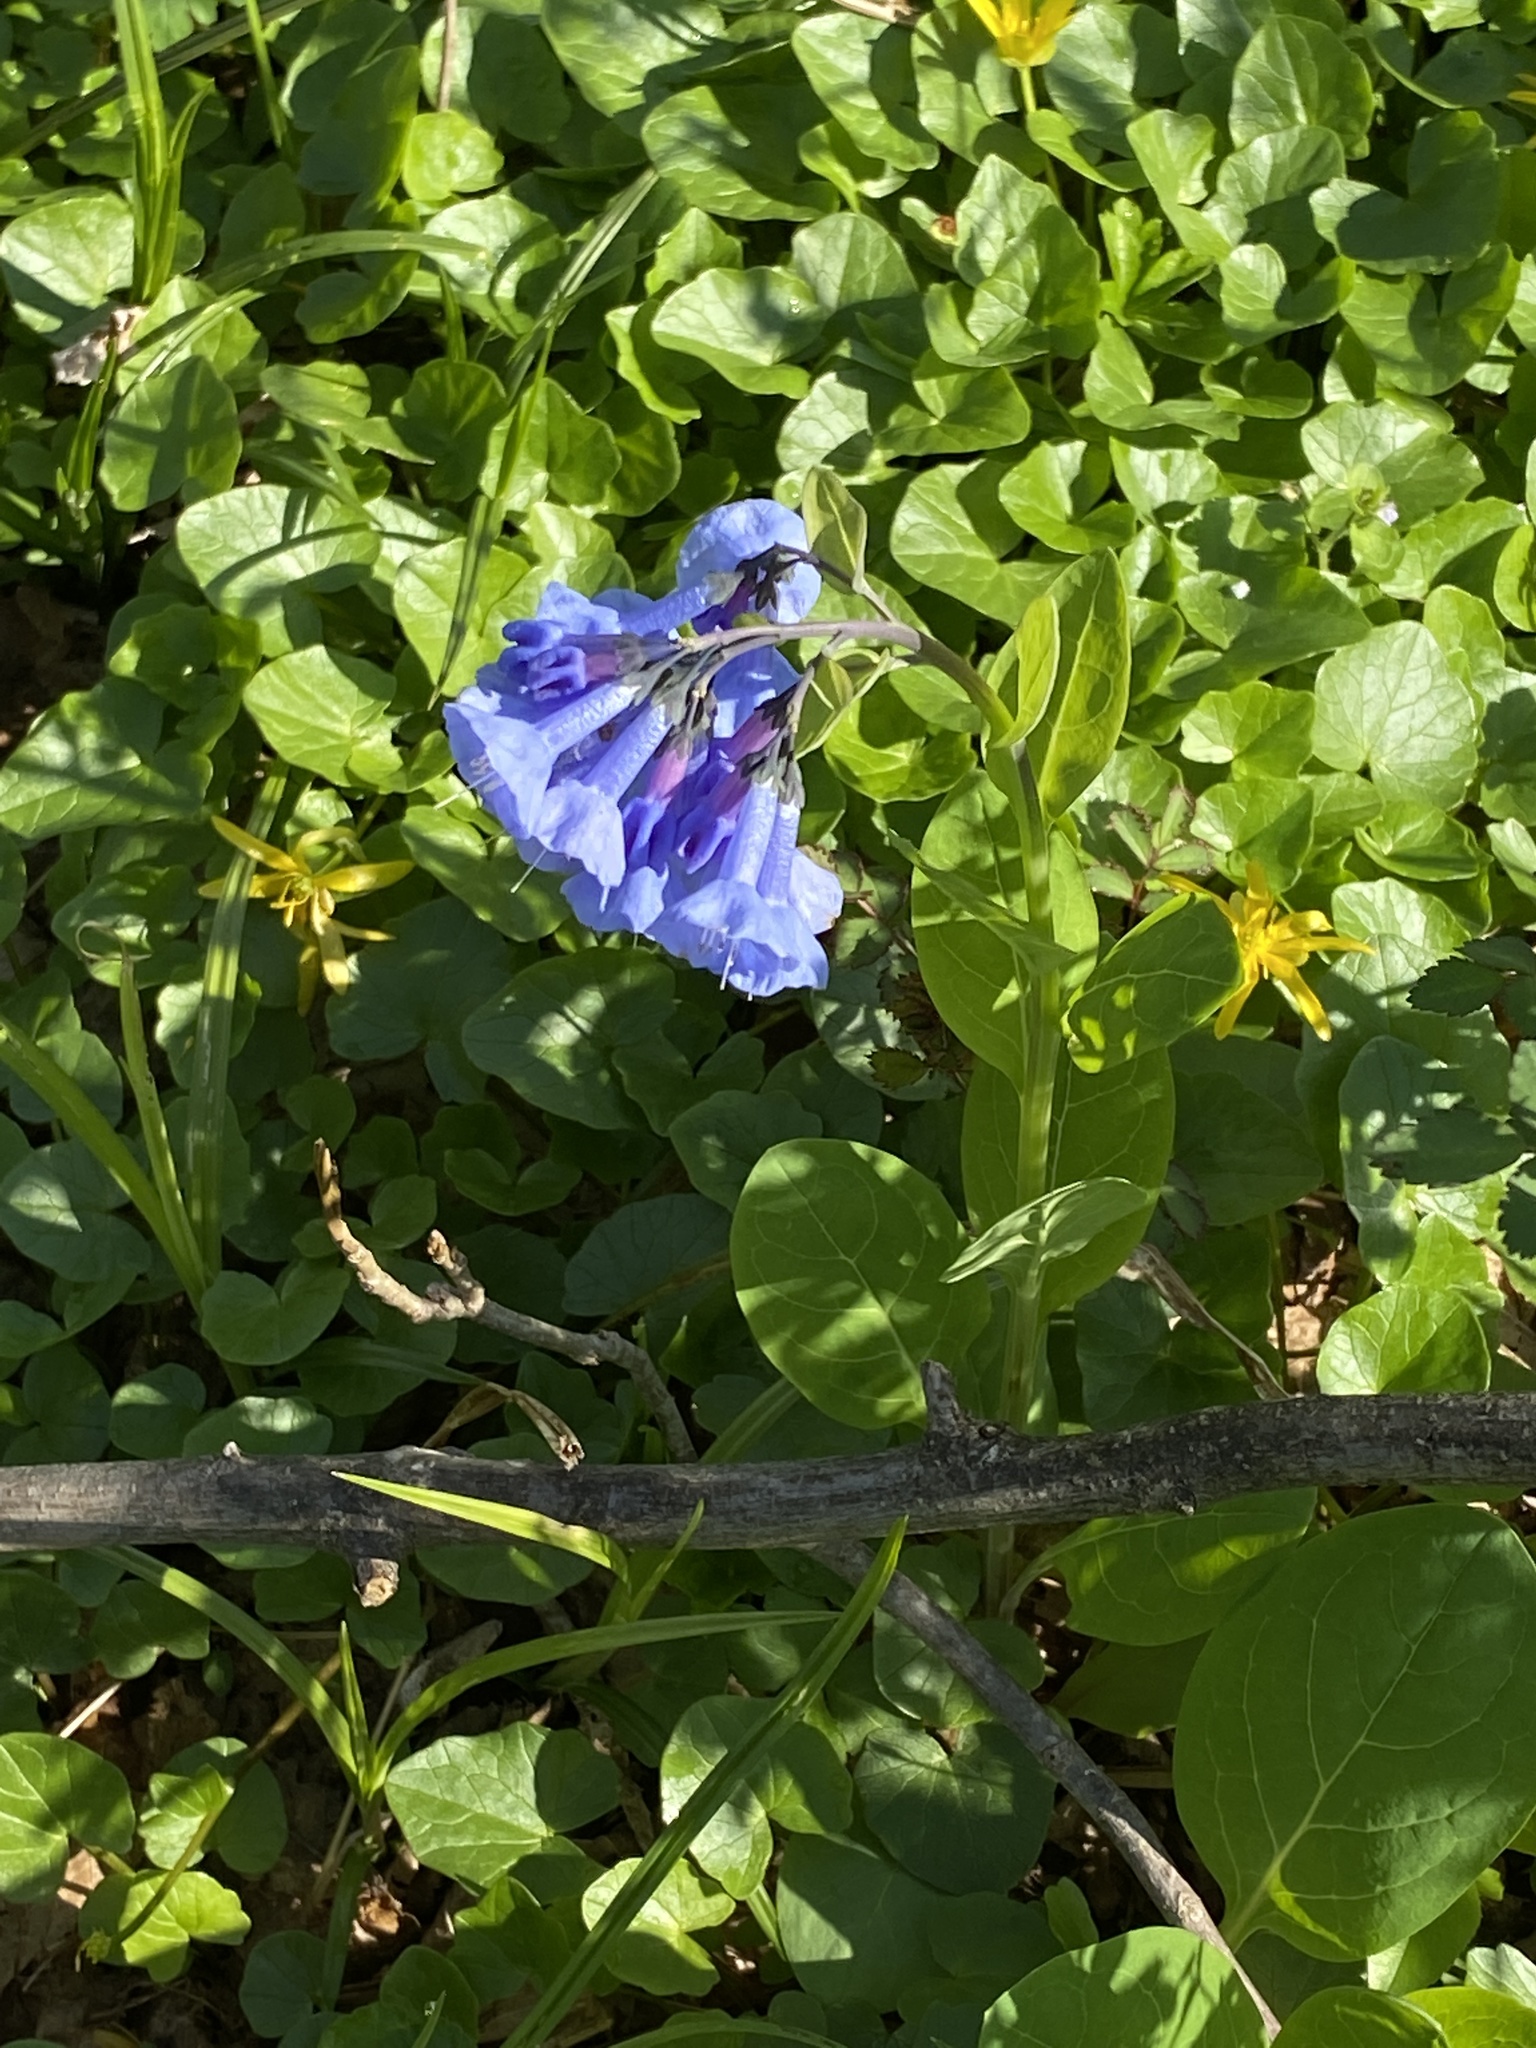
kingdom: Plantae
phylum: Tracheophyta
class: Magnoliopsida
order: Boraginales
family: Boraginaceae
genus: Mertensia
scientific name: Mertensia virginica
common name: Virginia bluebells
